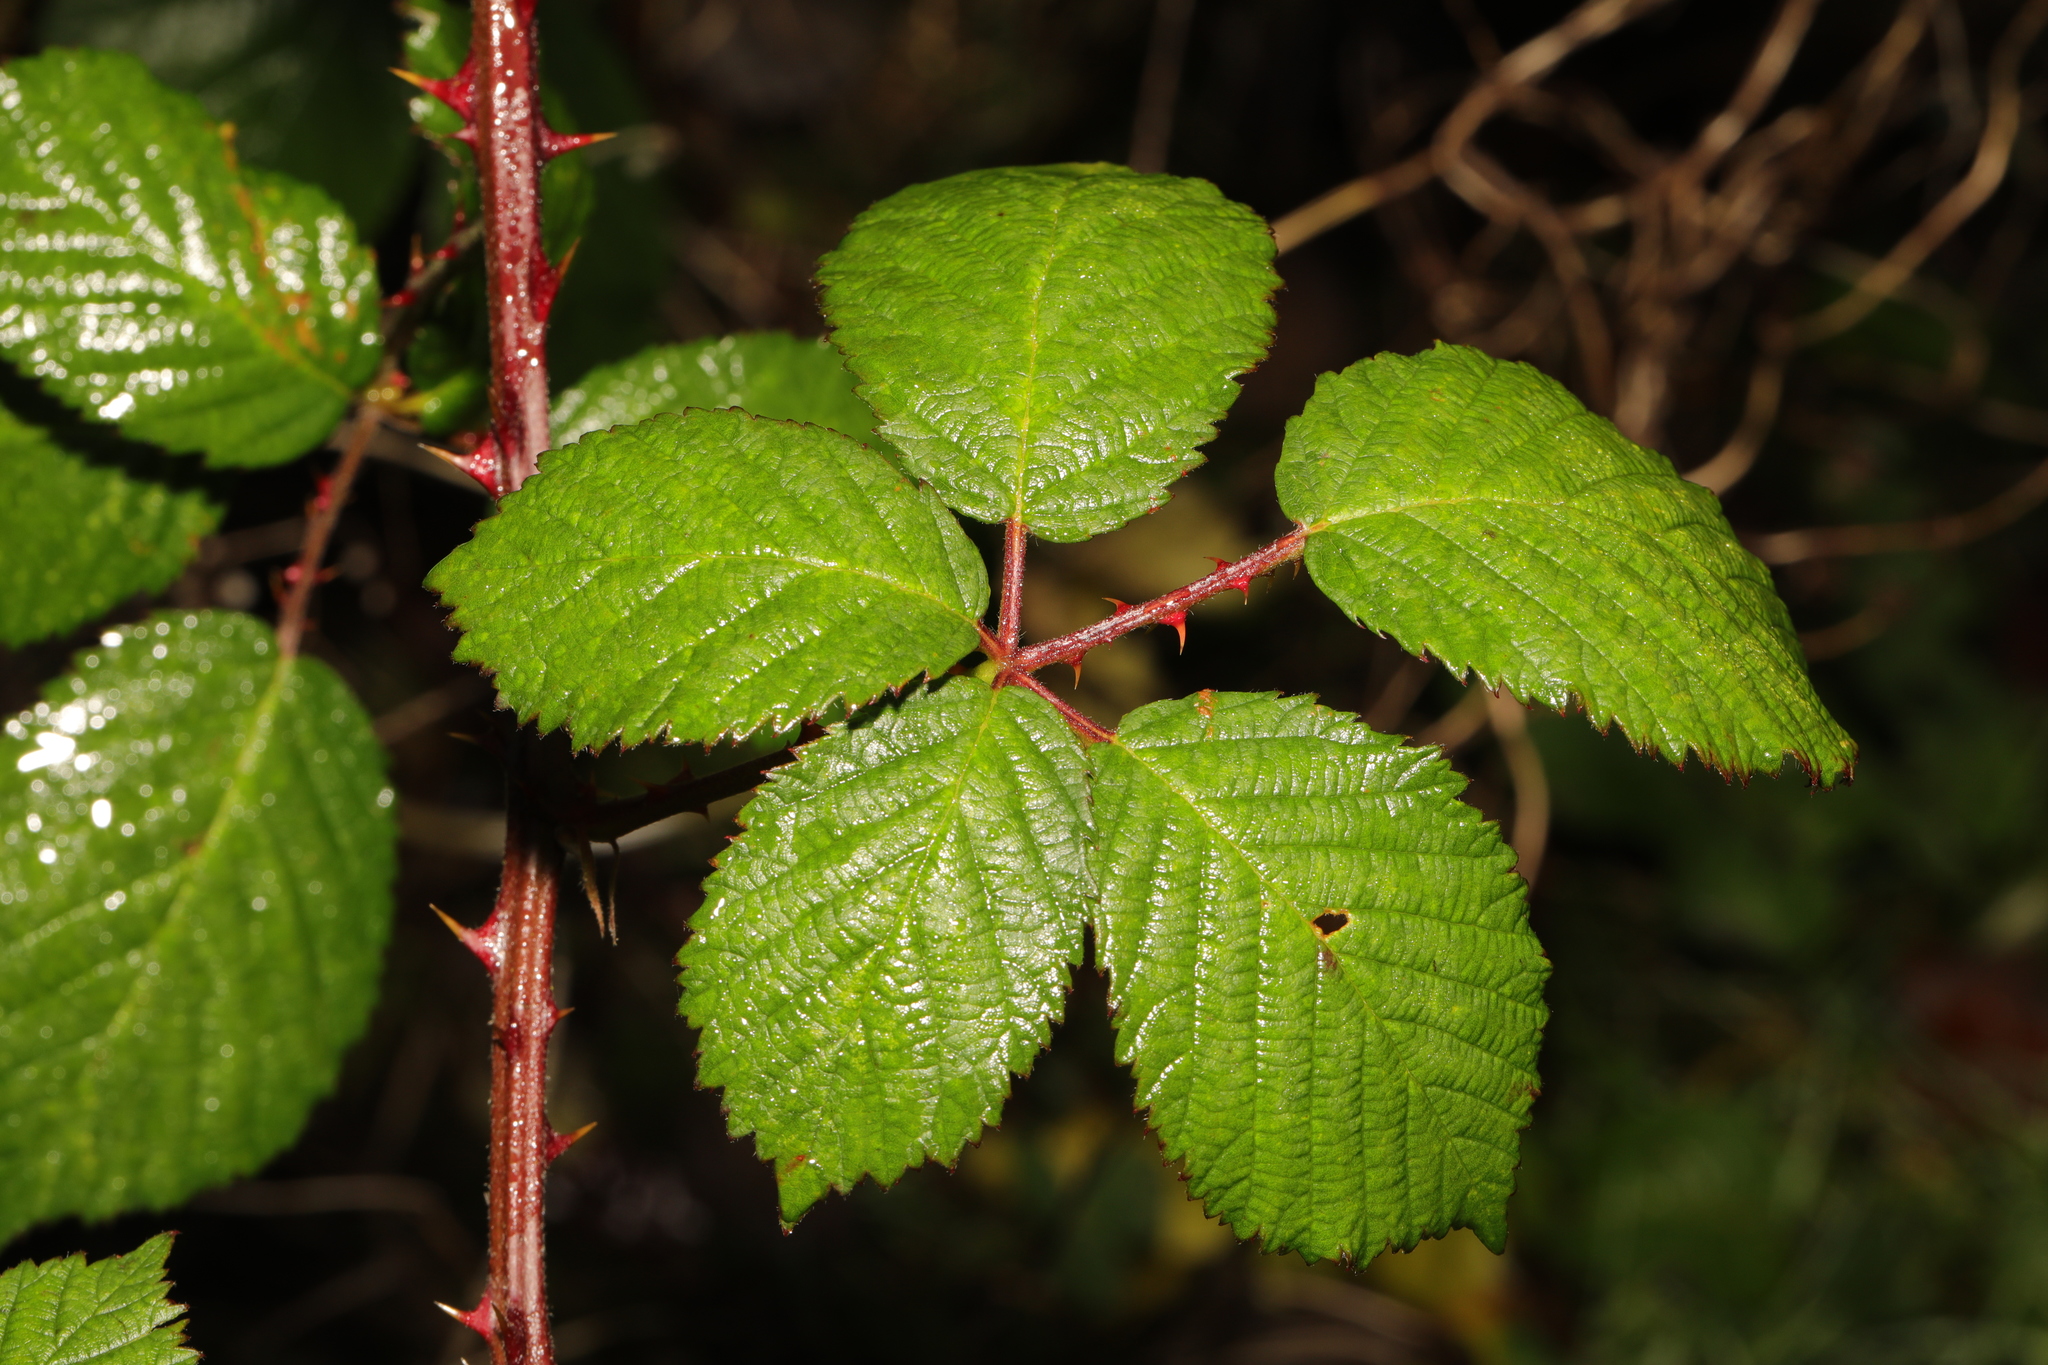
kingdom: Plantae
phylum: Tracheophyta
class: Magnoliopsida
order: Rosales
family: Rosaceae
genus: Rubus
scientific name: Rubus armeniacus
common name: Himalayan blackberry
